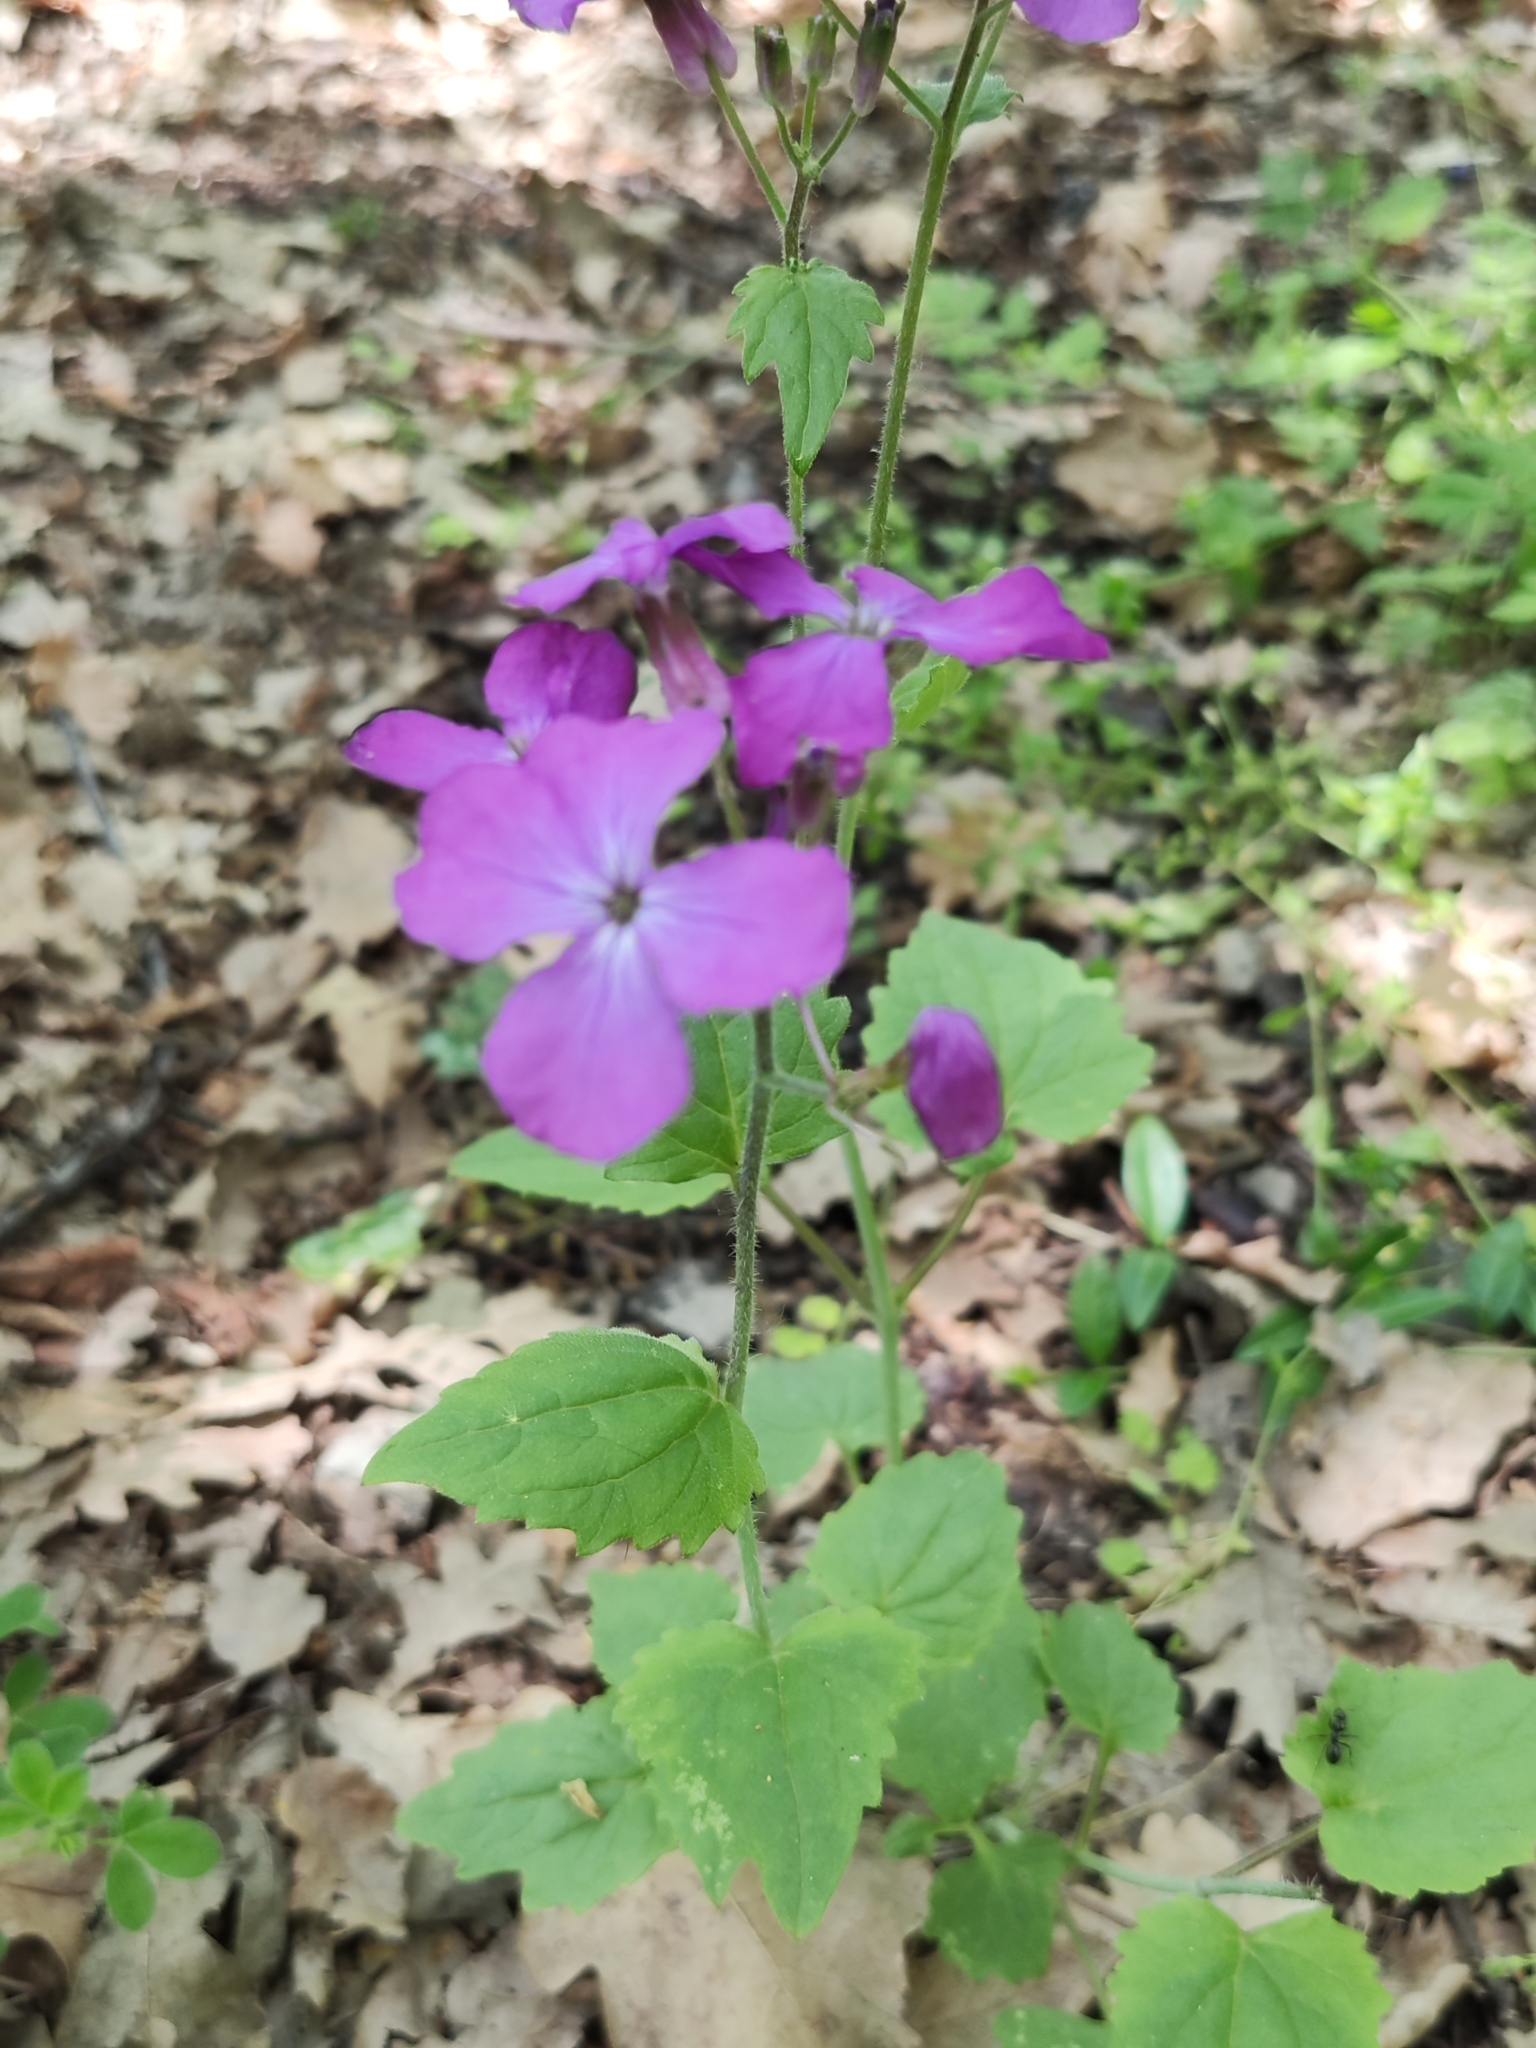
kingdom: Plantae
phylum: Tracheophyta
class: Magnoliopsida
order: Brassicales
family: Brassicaceae
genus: Lunaria
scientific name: Lunaria annua
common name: Honesty
